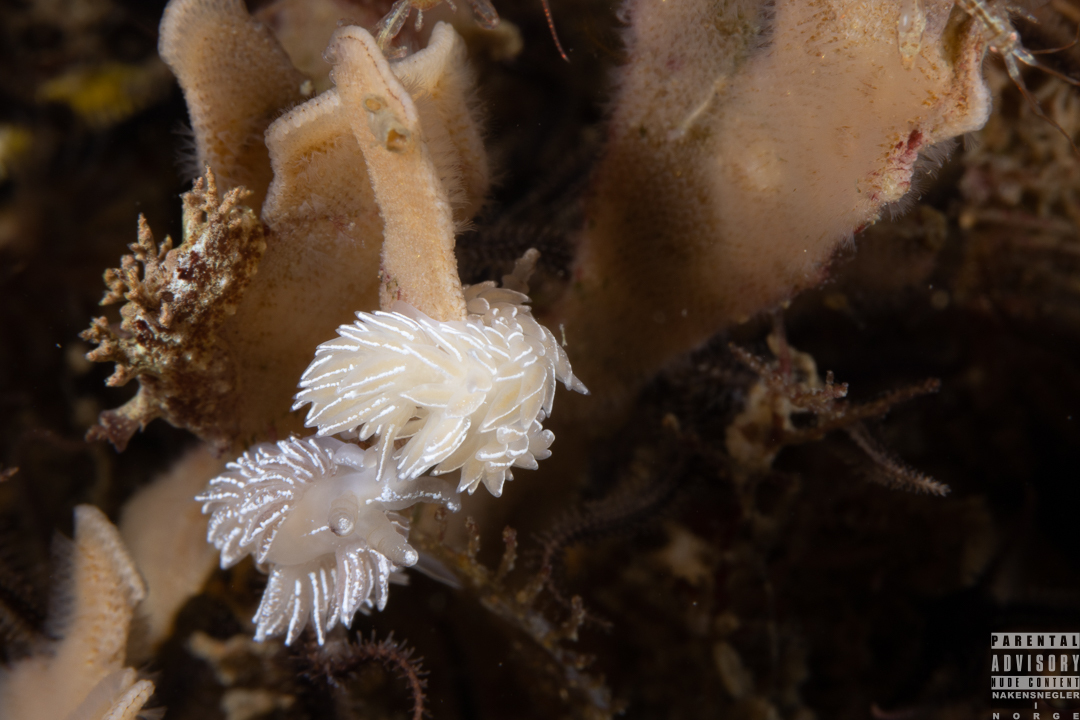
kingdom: Animalia
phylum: Mollusca
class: Gastropoda
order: Nudibranchia
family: Facelinidae
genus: Favorinus
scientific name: Favorinus blianus
